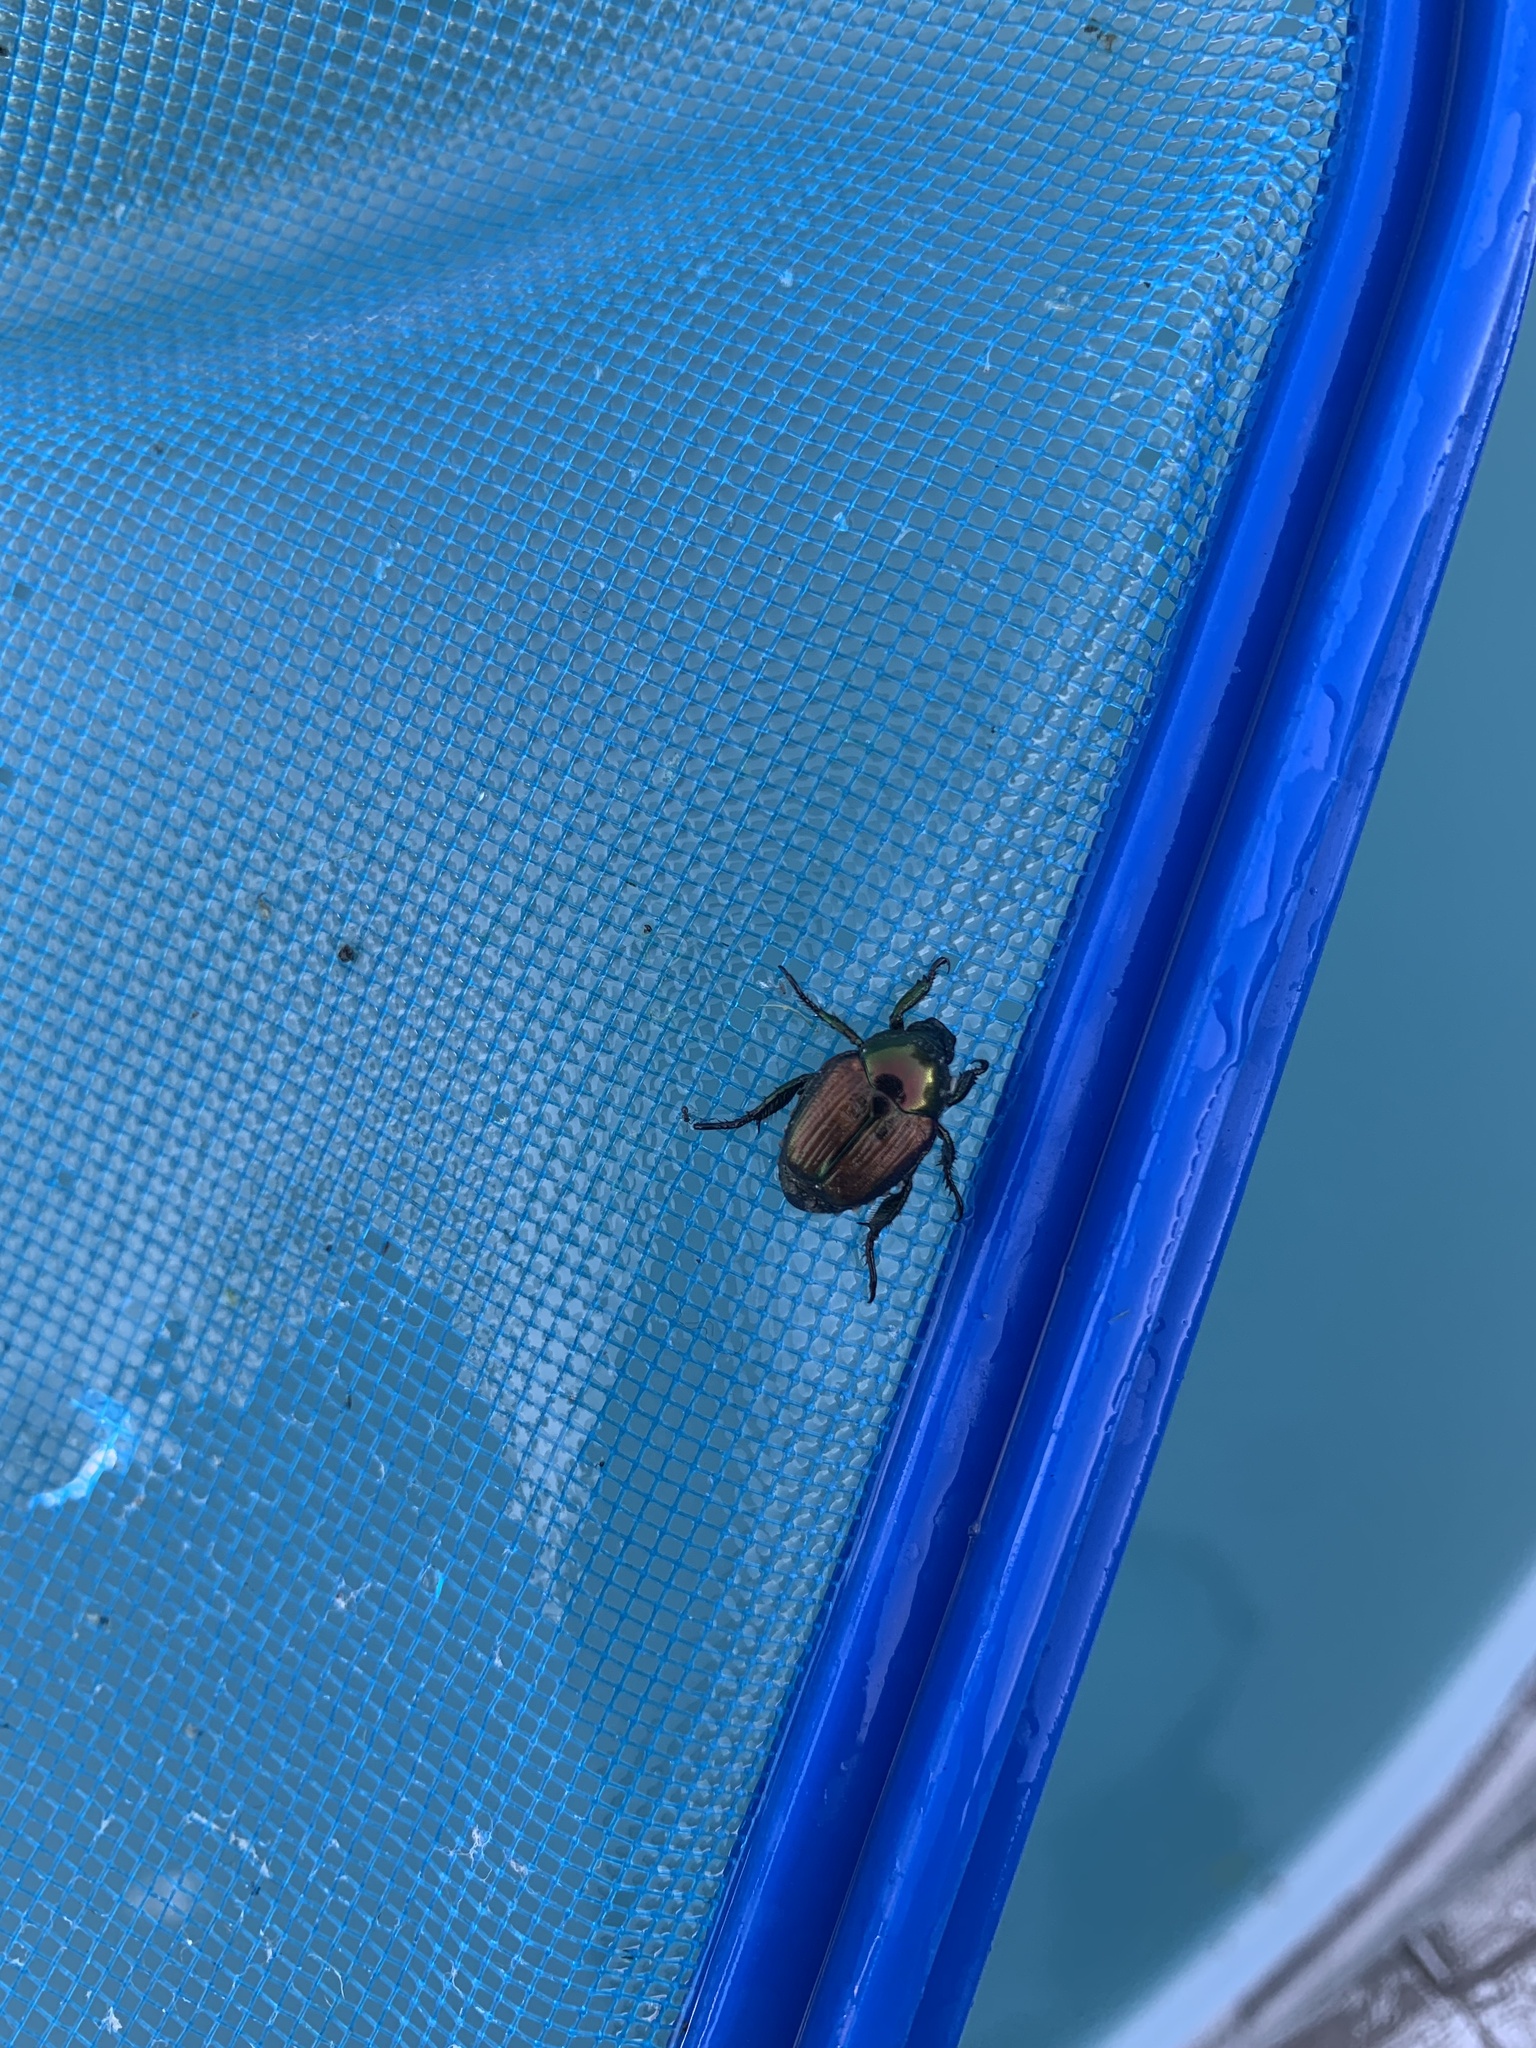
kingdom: Animalia
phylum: Arthropoda
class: Insecta
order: Coleoptera
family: Scarabaeidae
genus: Popillia
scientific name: Popillia japonica
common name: Japanese beetle
